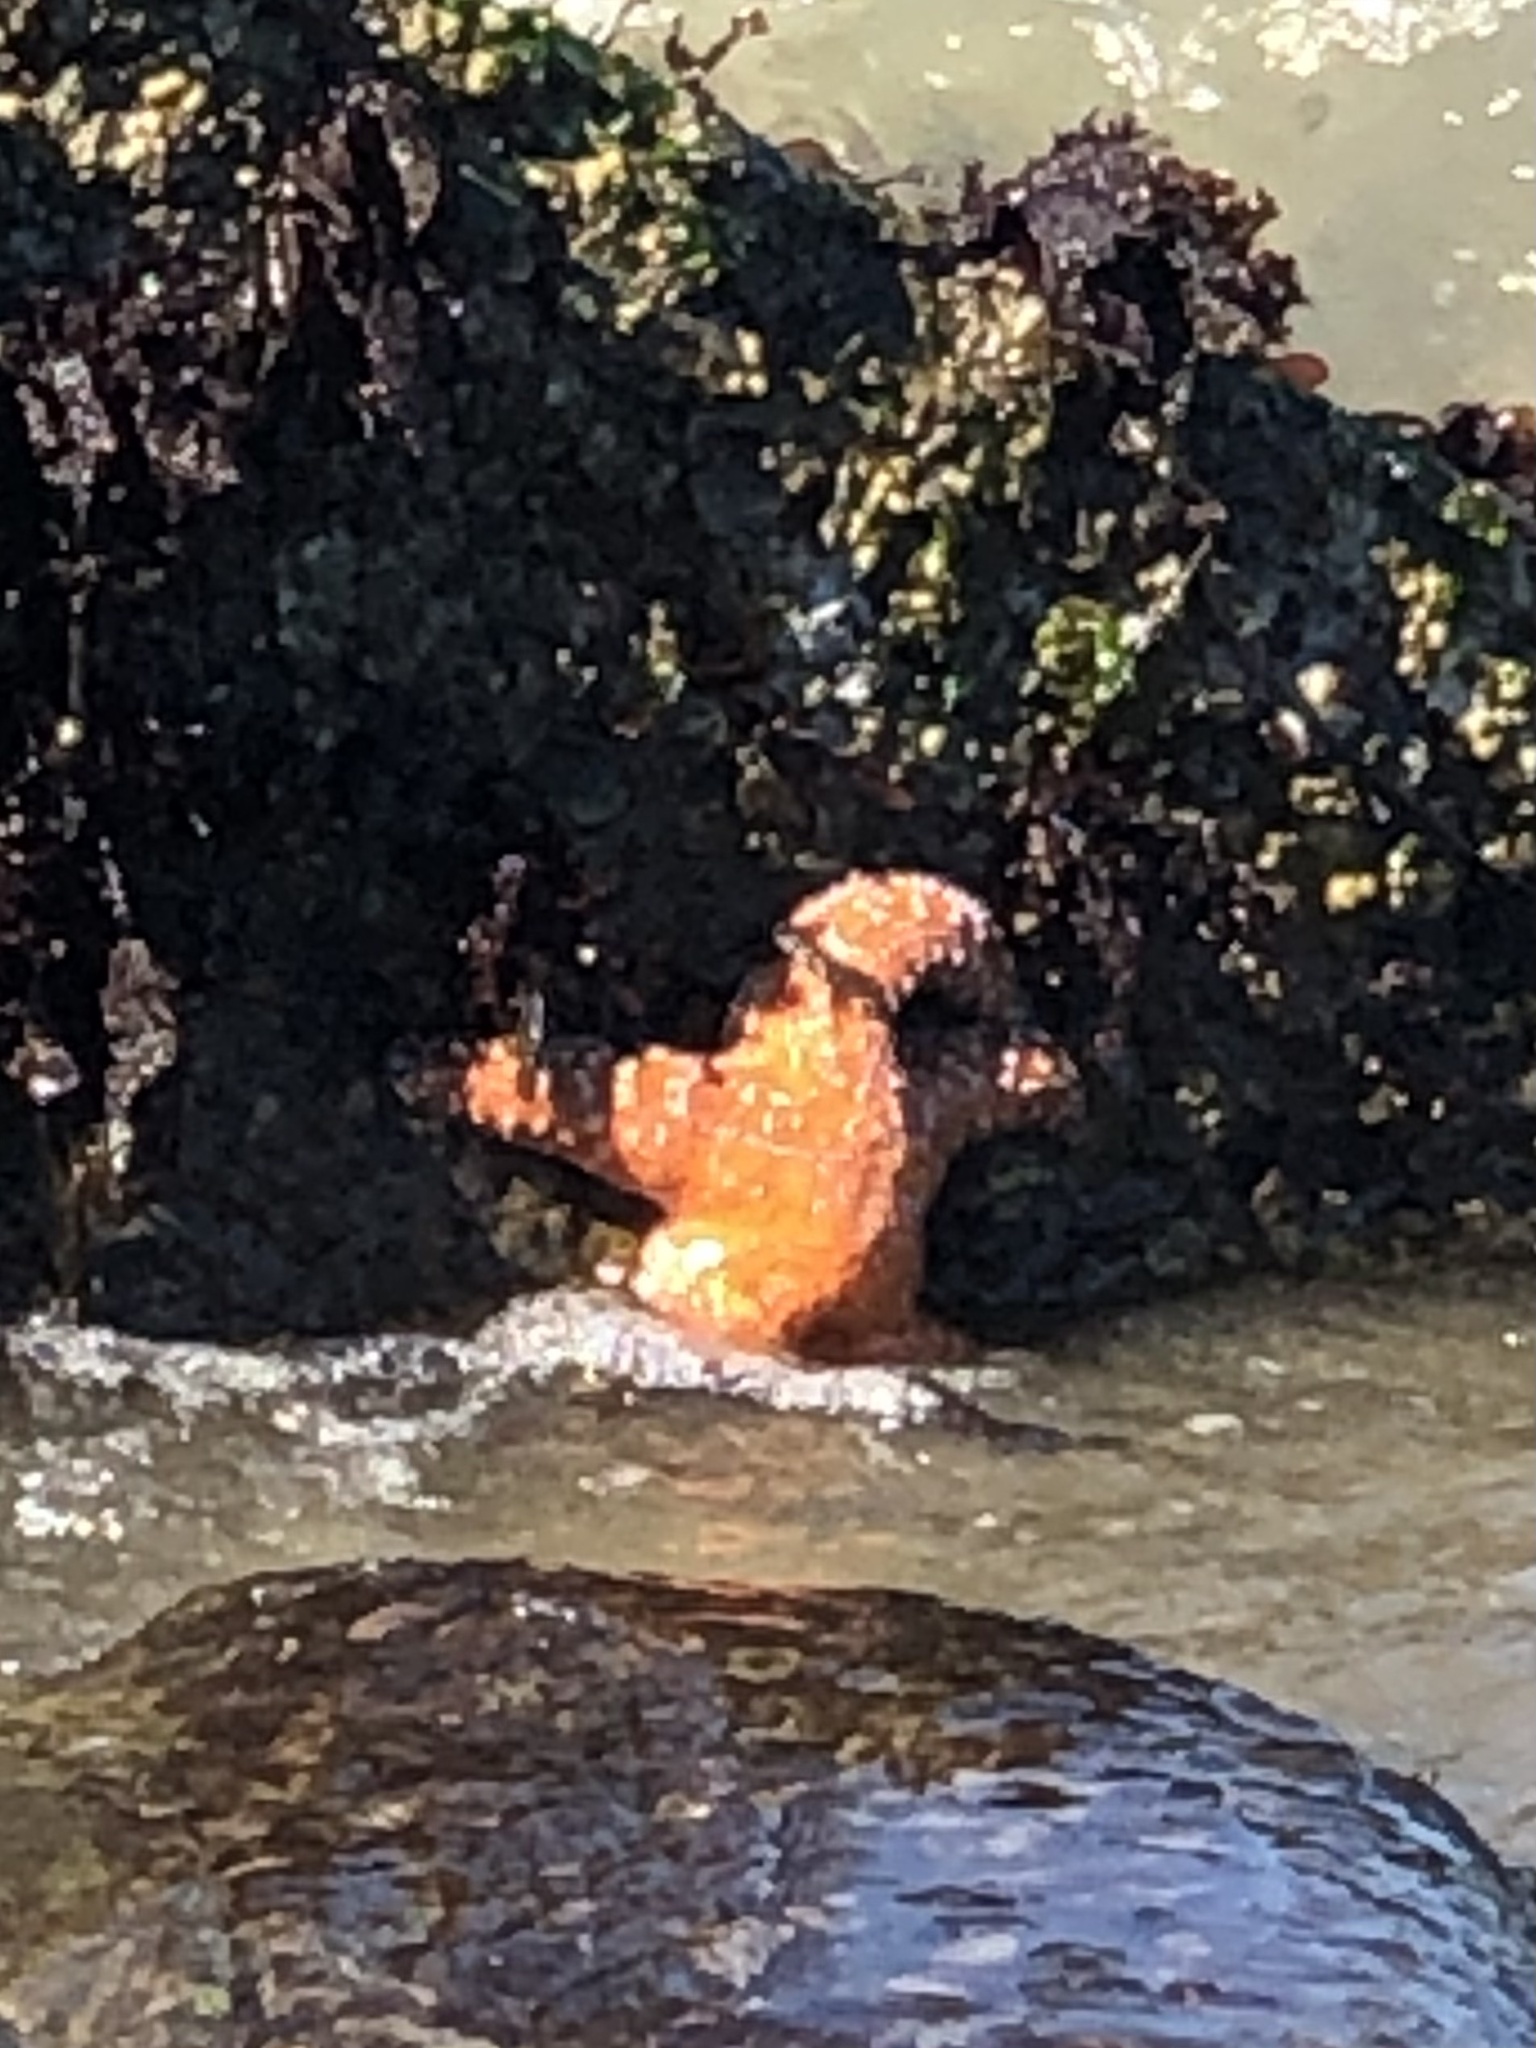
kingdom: Animalia
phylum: Echinodermata
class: Asteroidea
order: Forcipulatida
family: Asteriidae
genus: Pisaster
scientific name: Pisaster ochraceus
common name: Ochre stars
